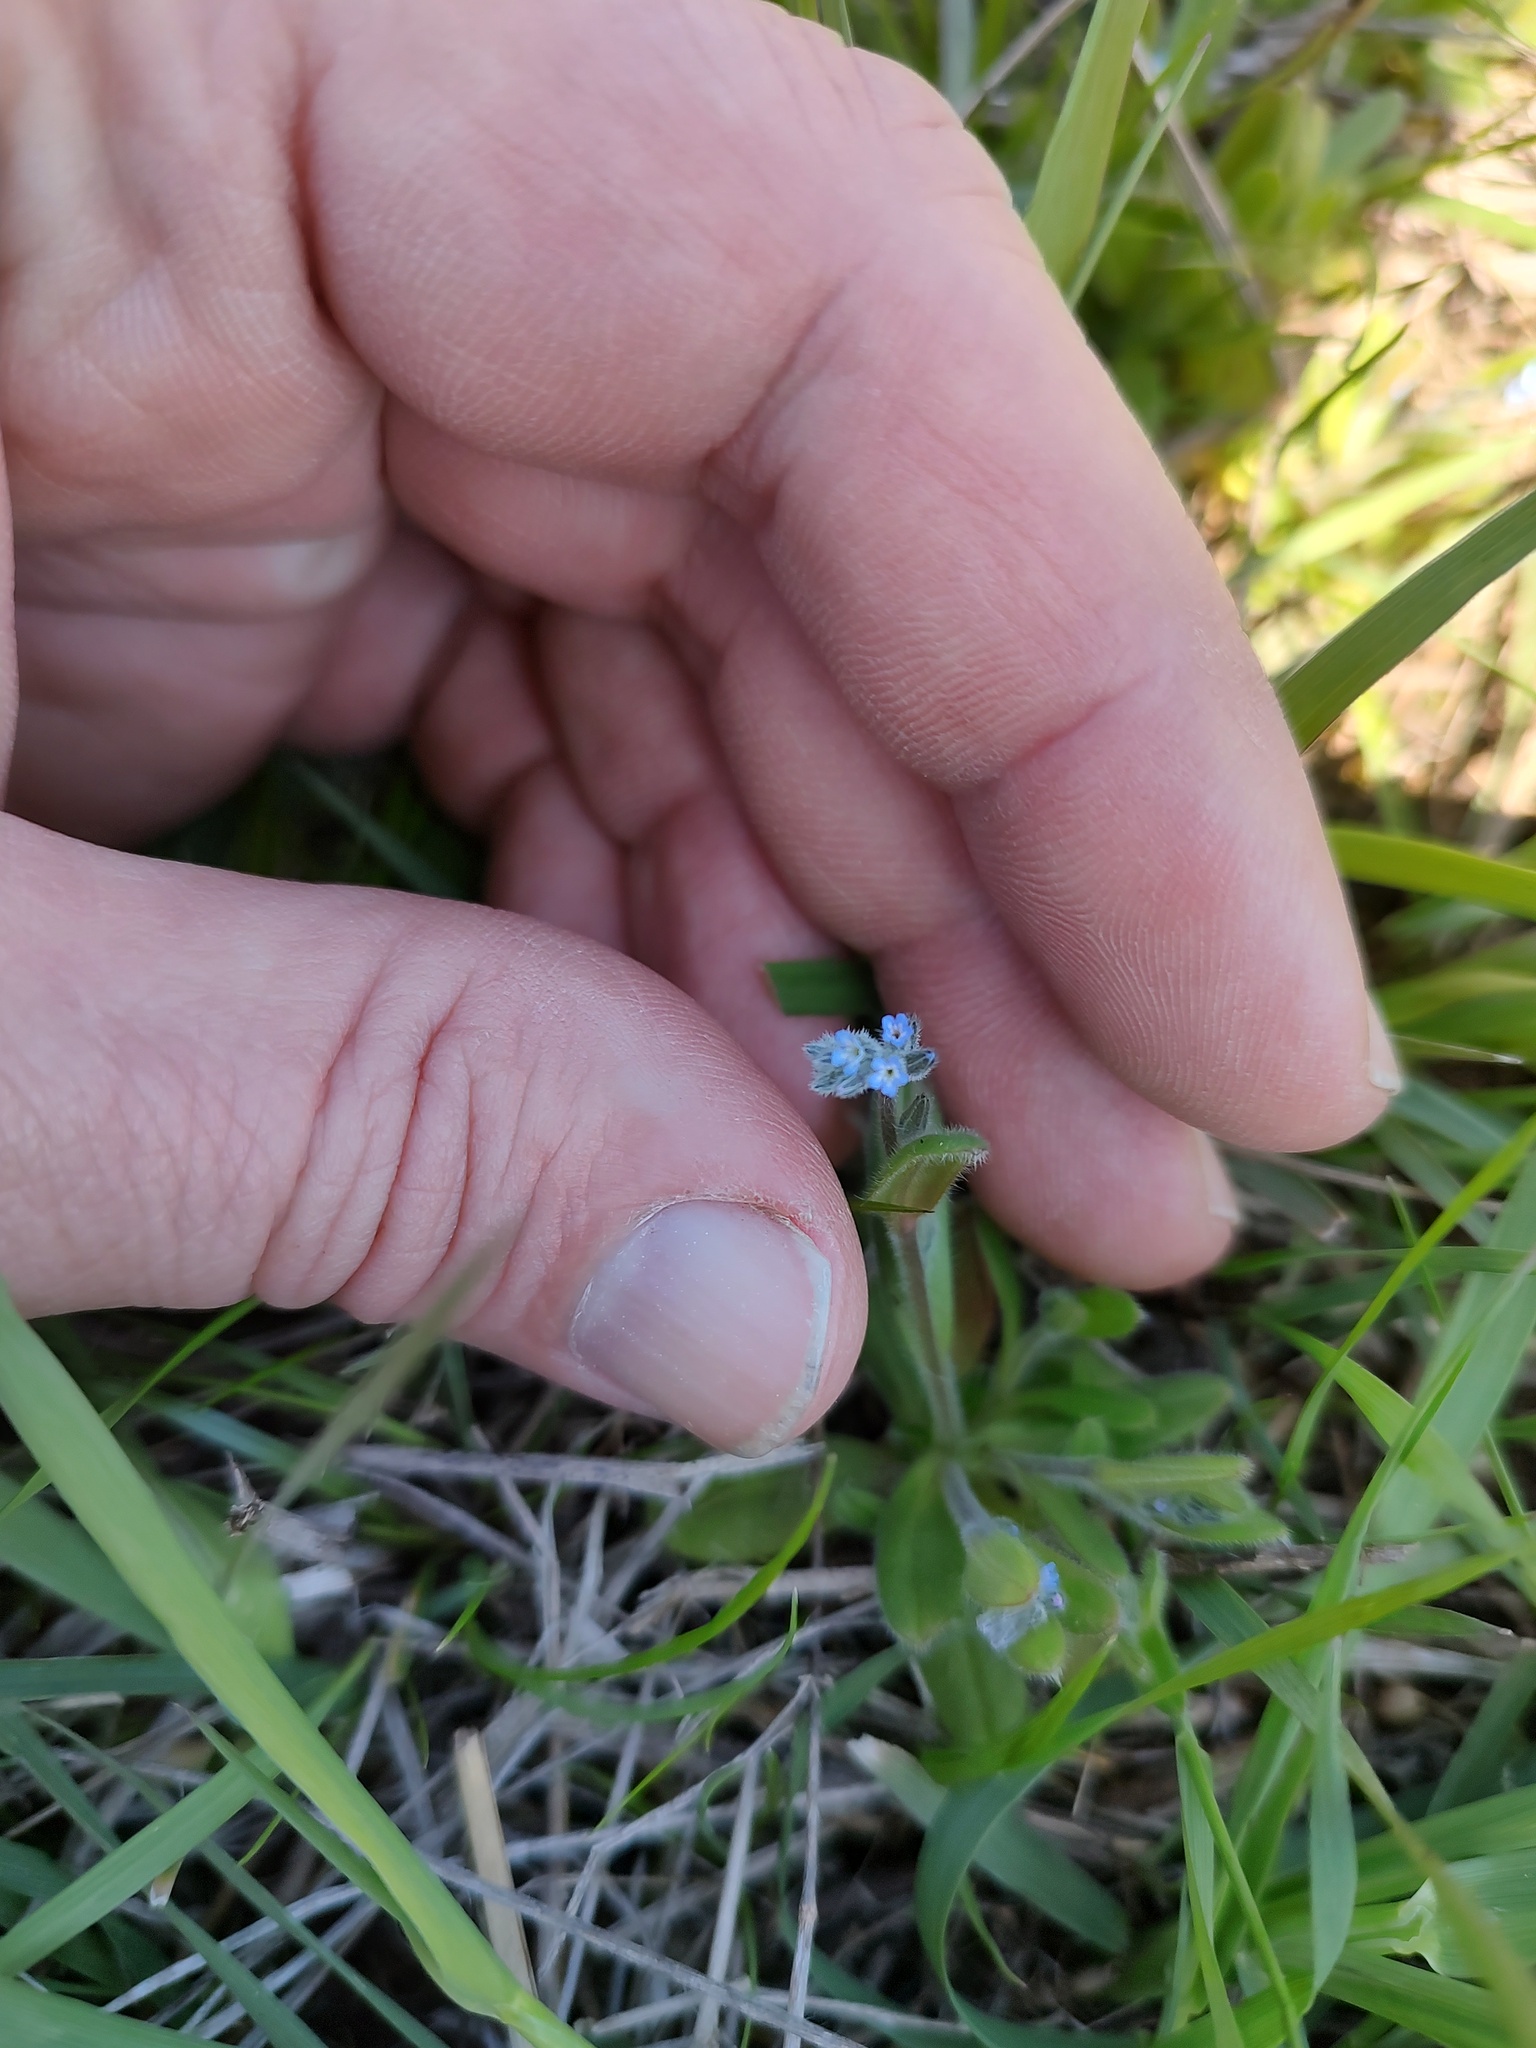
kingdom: Plantae
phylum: Tracheophyta
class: Magnoliopsida
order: Boraginales
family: Boraginaceae
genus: Myosotis
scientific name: Myosotis stricta
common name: Strict forget-me-not
